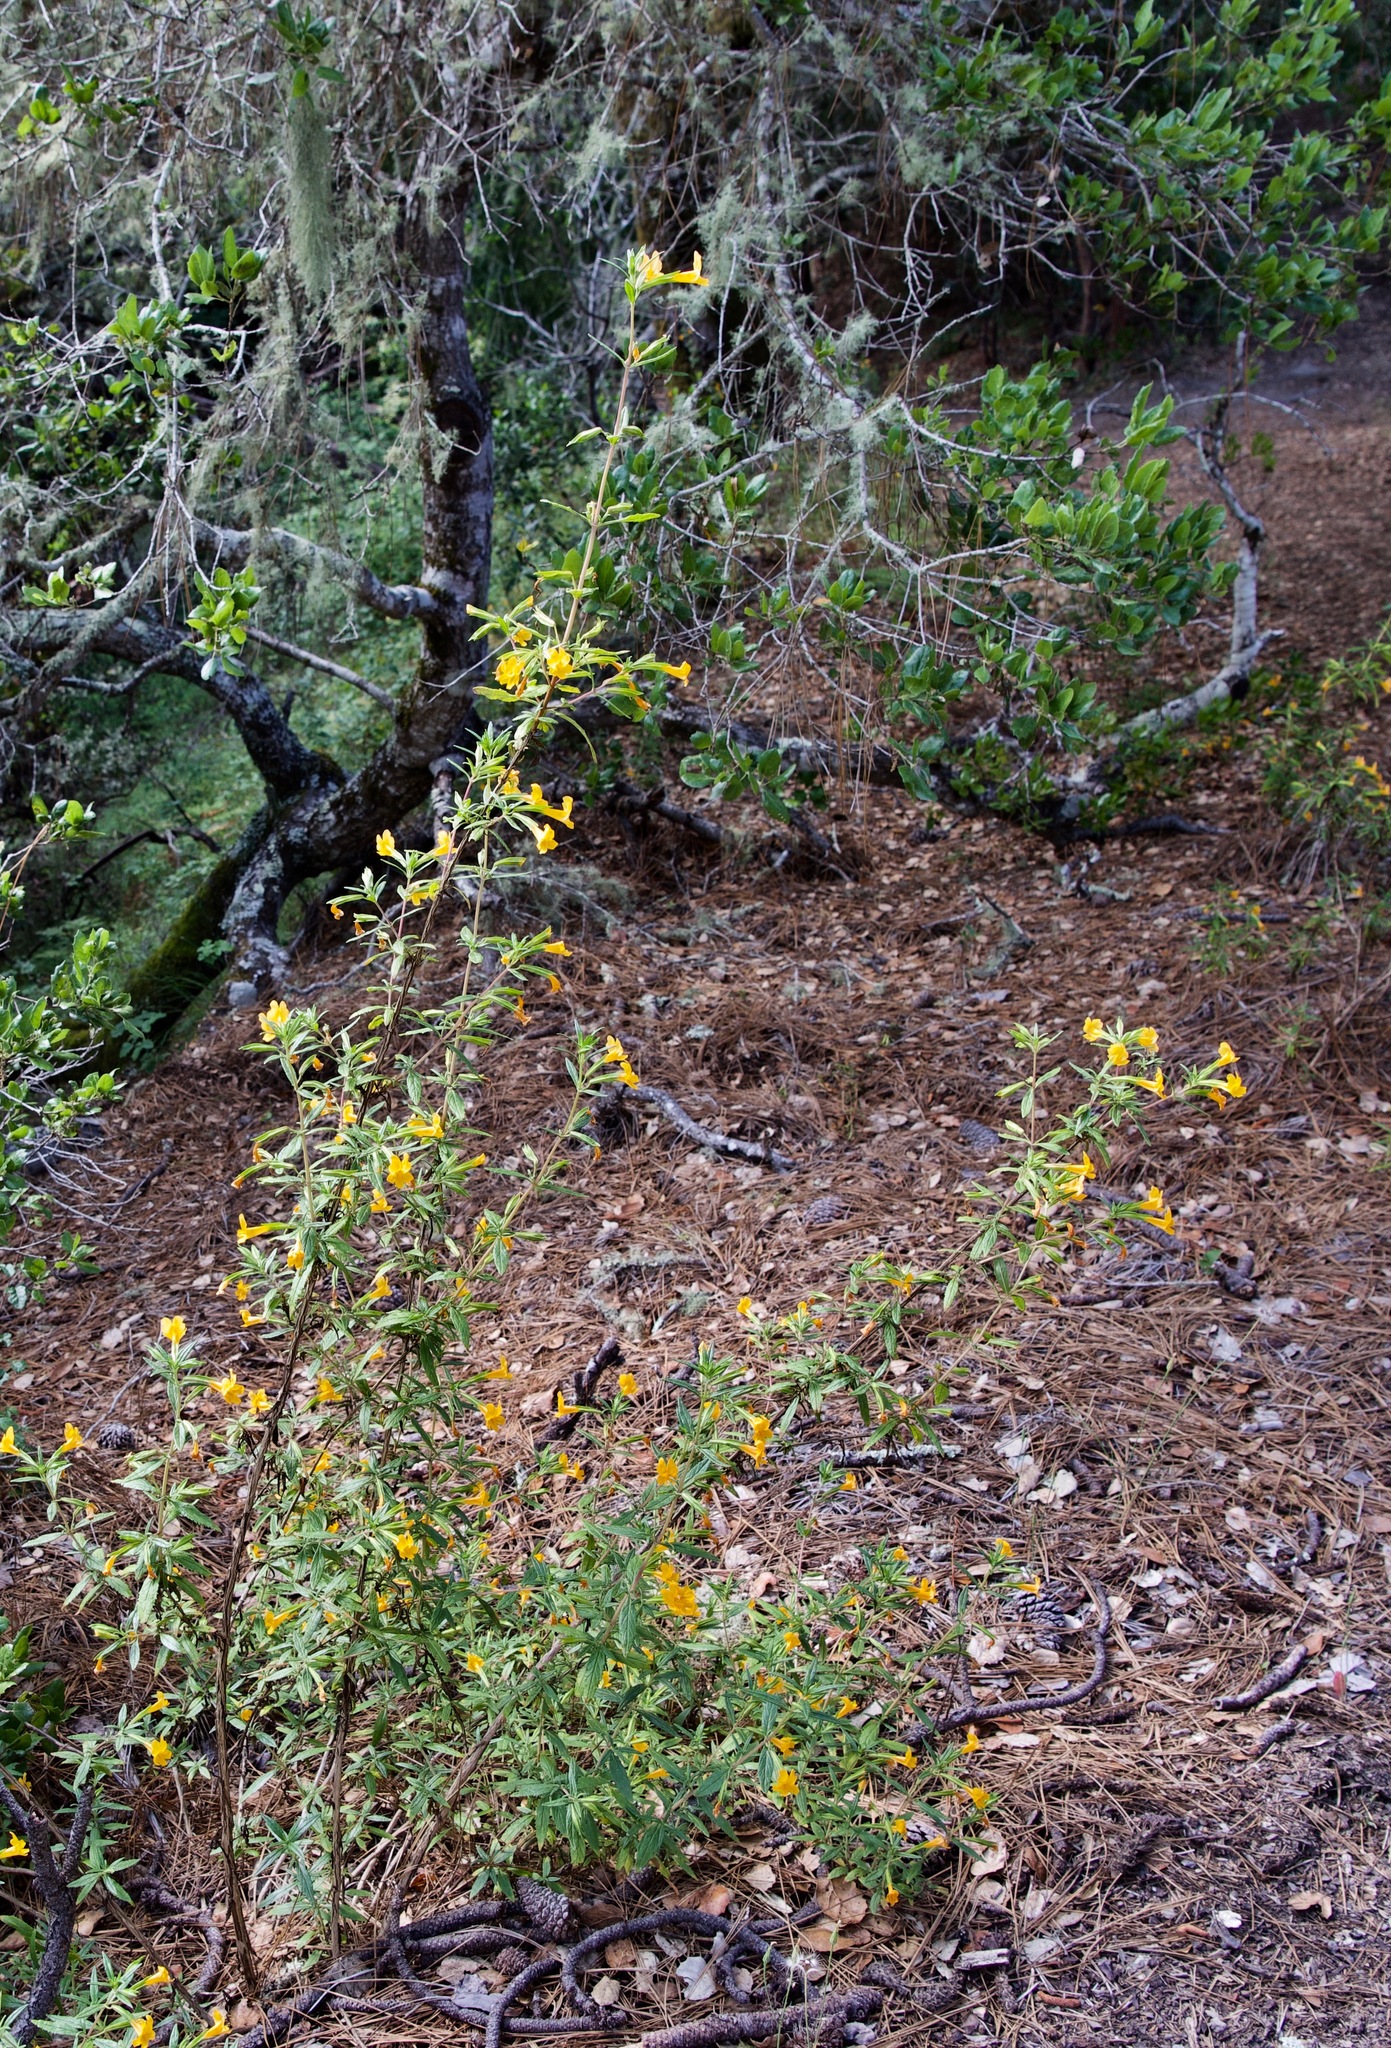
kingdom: Plantae
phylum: Tracheophyta
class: Magnoliopsida
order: Lamiales
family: Phrymaceae
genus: Diplacus
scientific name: Diplacus aurantiacus
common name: Bush monkey-flower
